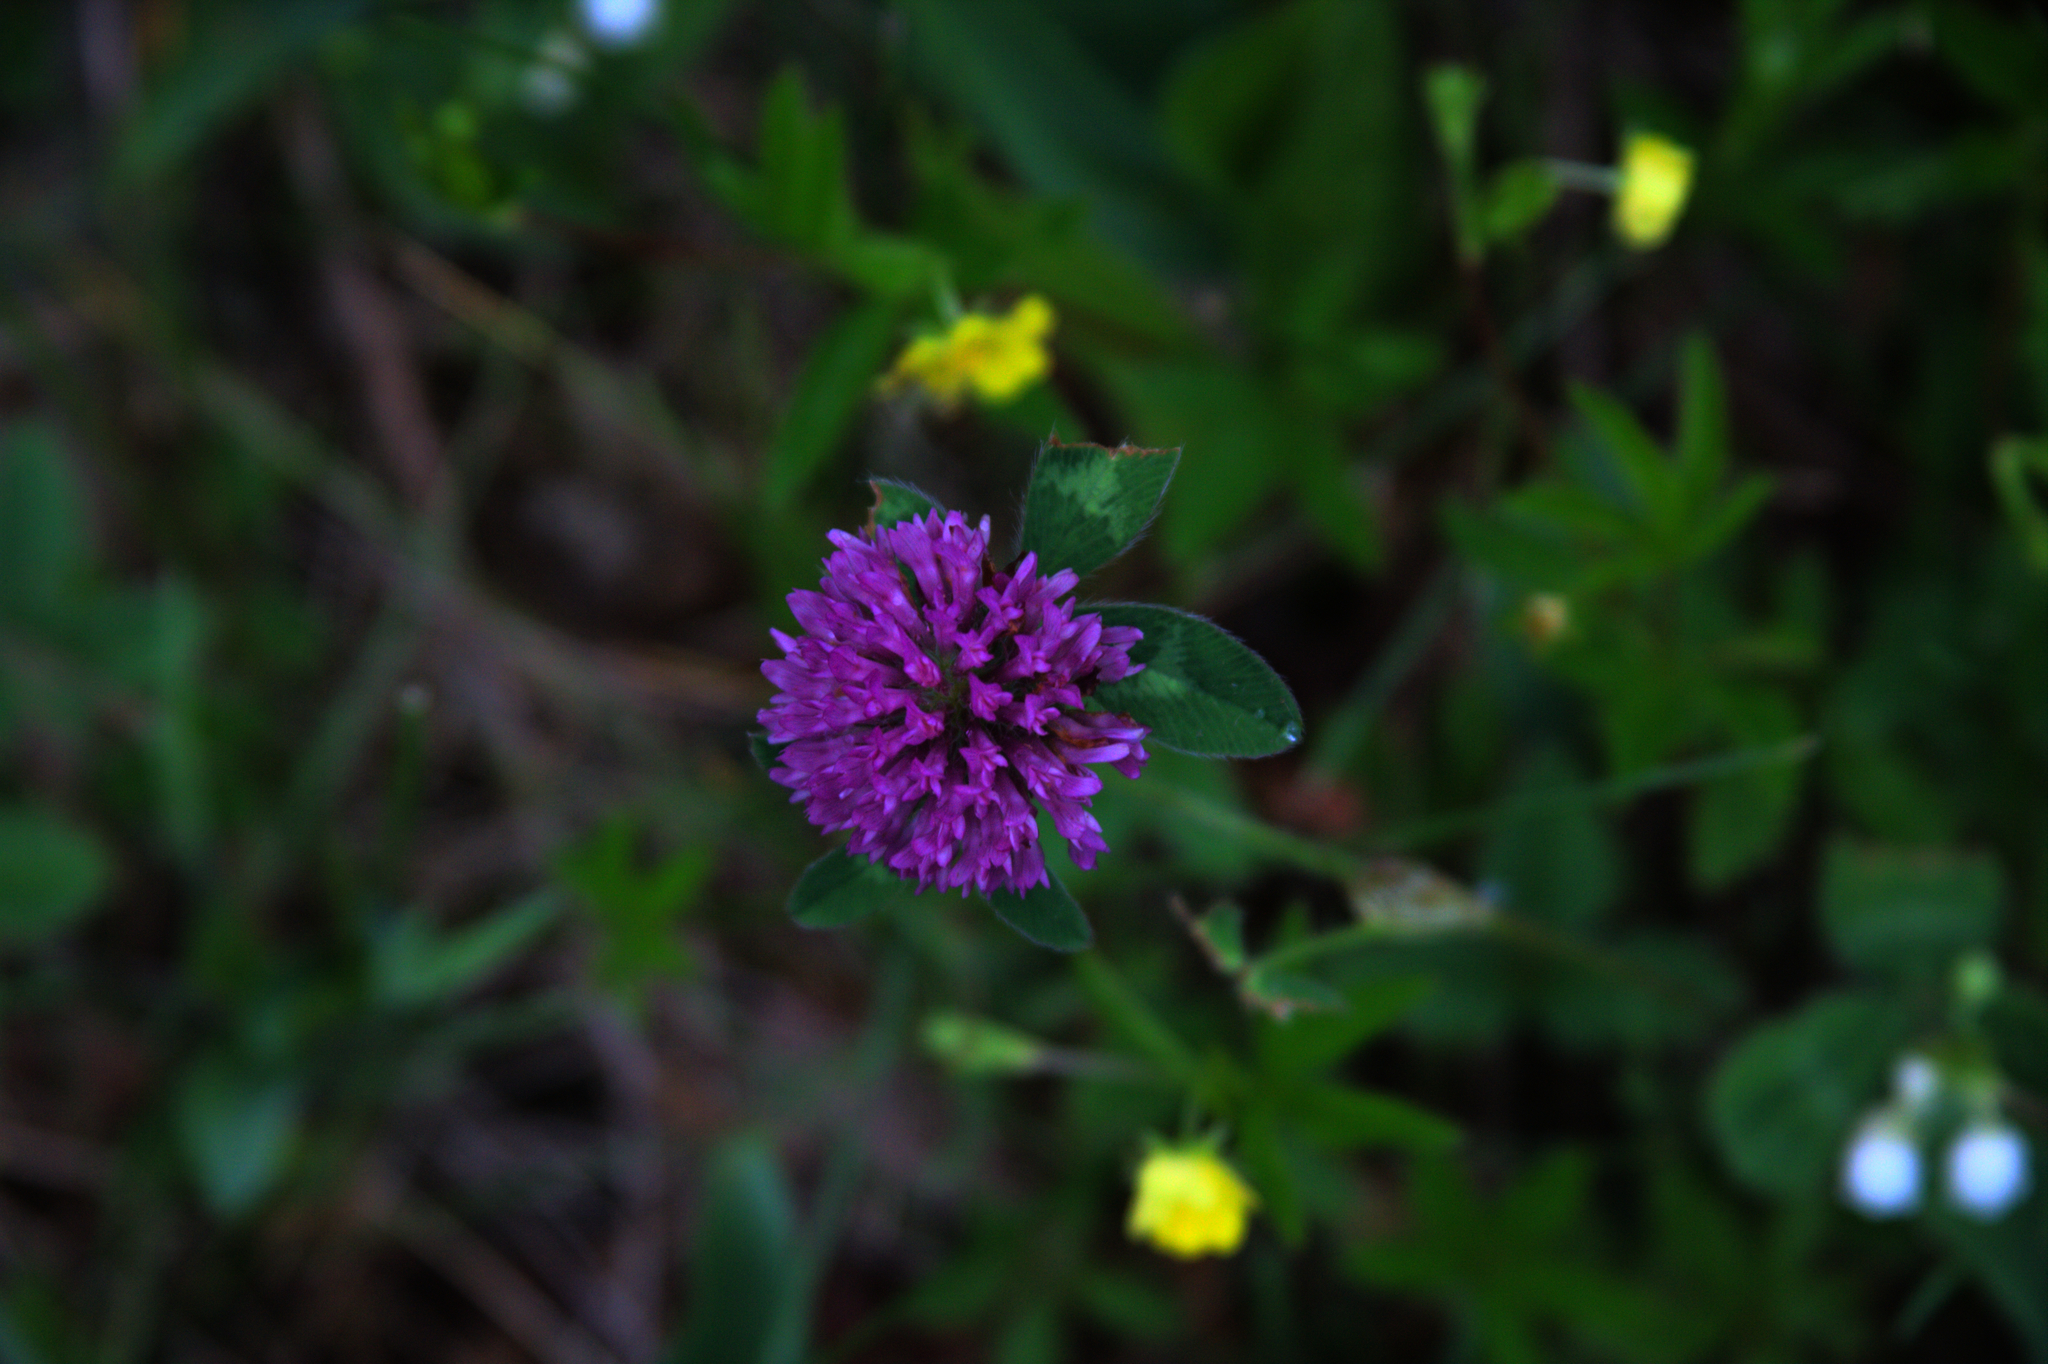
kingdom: Plantae
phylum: Tracheophyta
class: Magnoliopsida
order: Fabales
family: Fabaceae
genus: Trifolium
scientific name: Trifolium pratense
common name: Red clover
